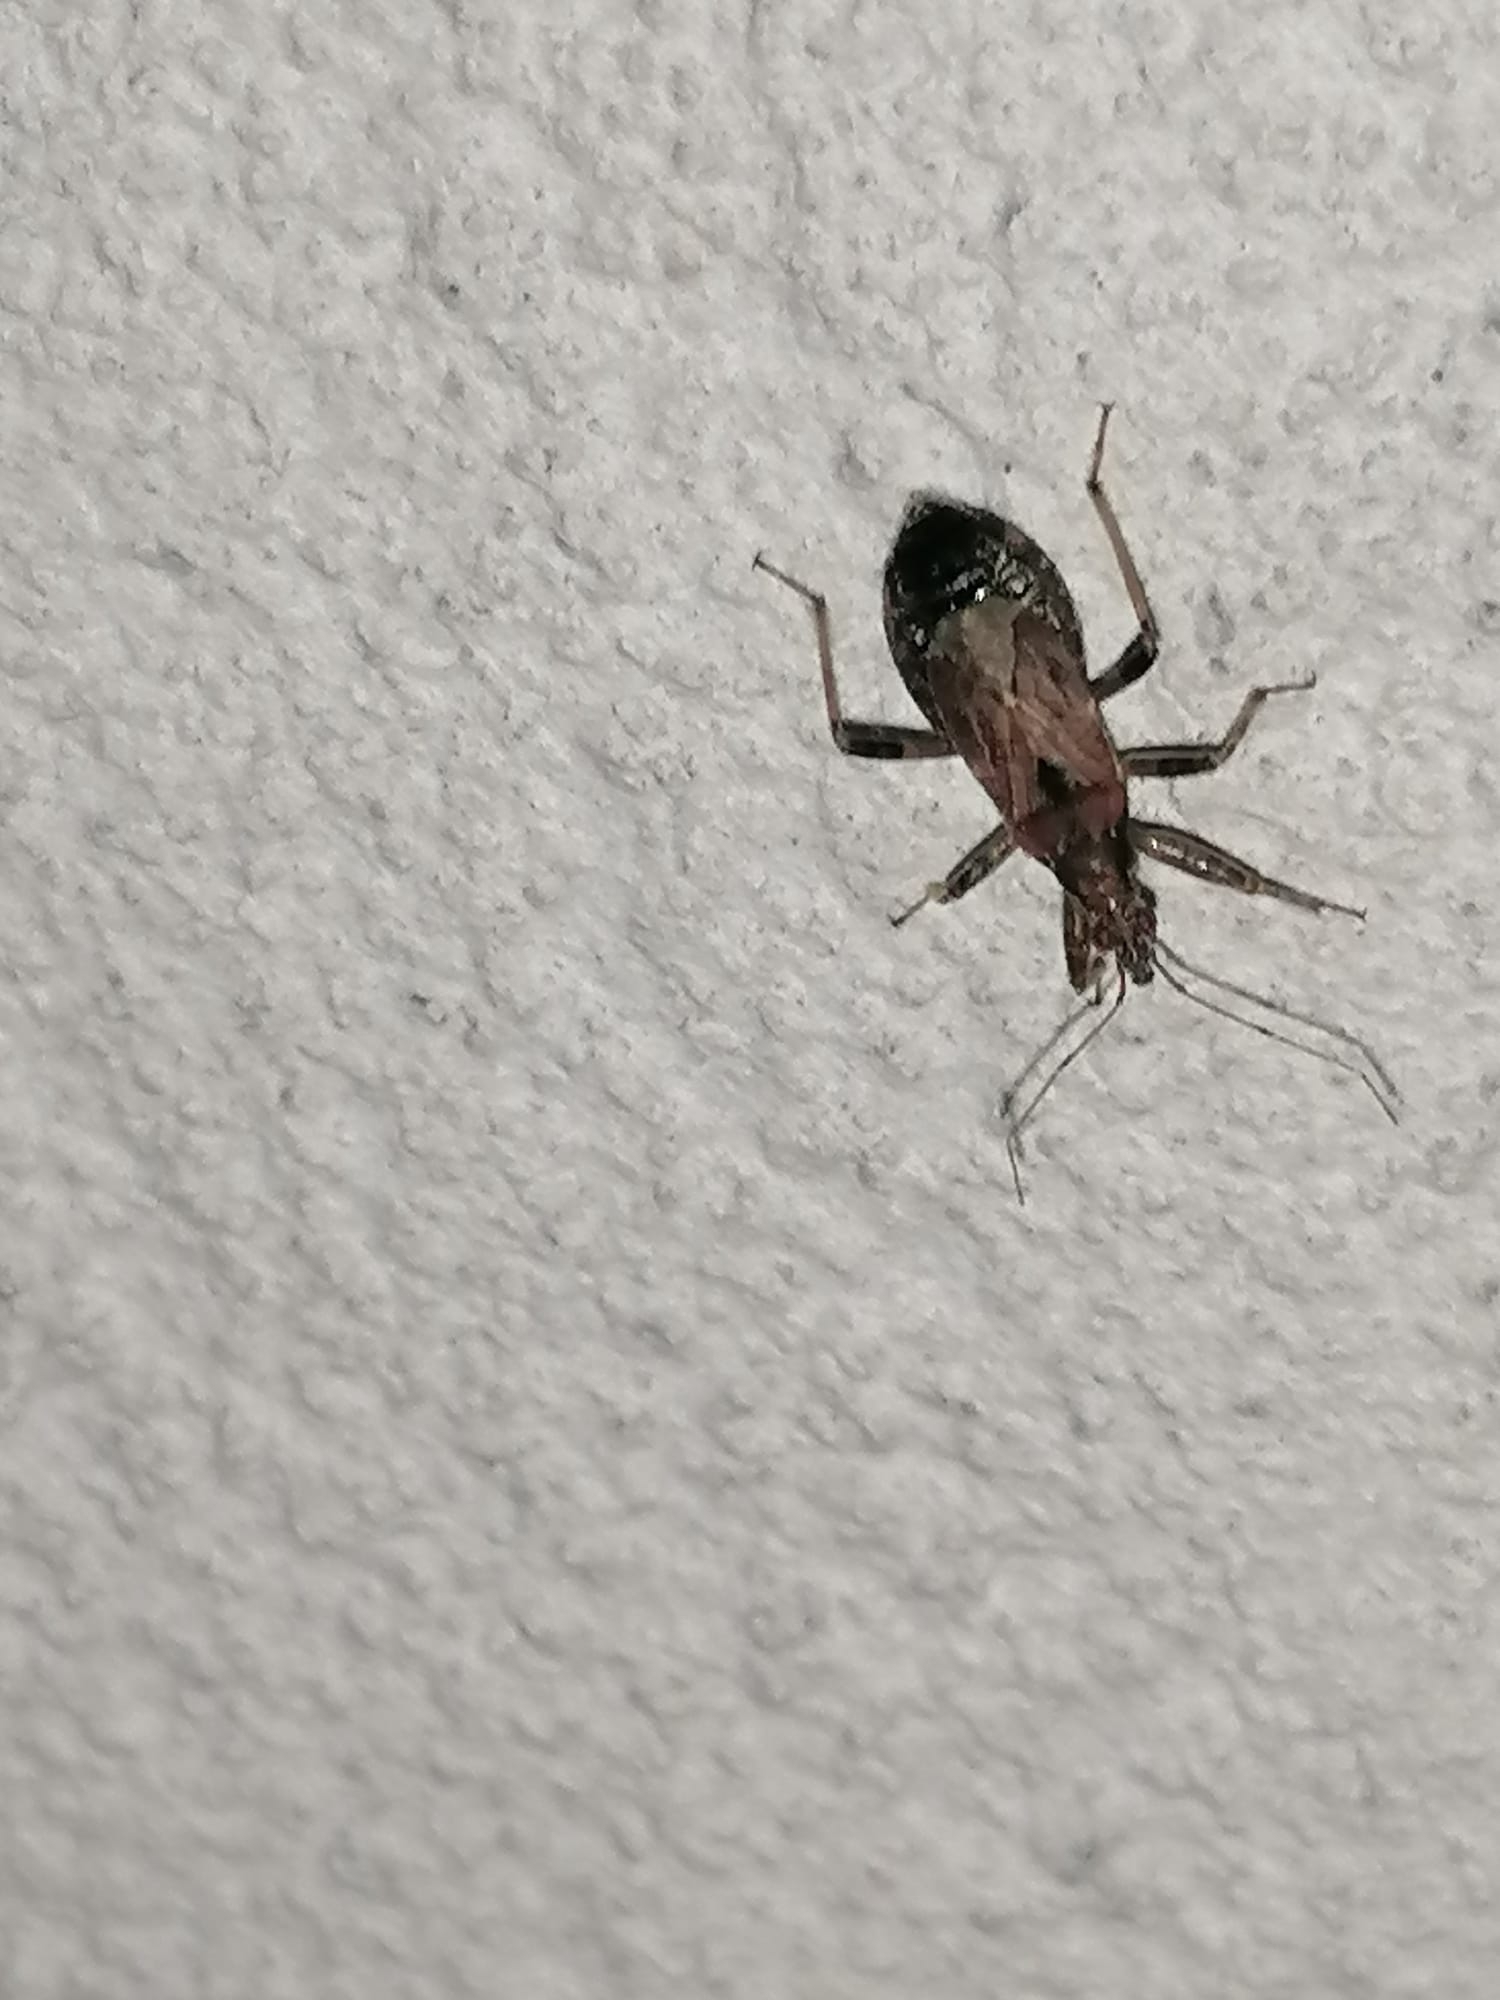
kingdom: Animalia
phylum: Arthropoda
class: Insecta
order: Hemiptera
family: Nabidae
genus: Himacerus
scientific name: Himacerus mirmicoides
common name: Ant damsel bug
